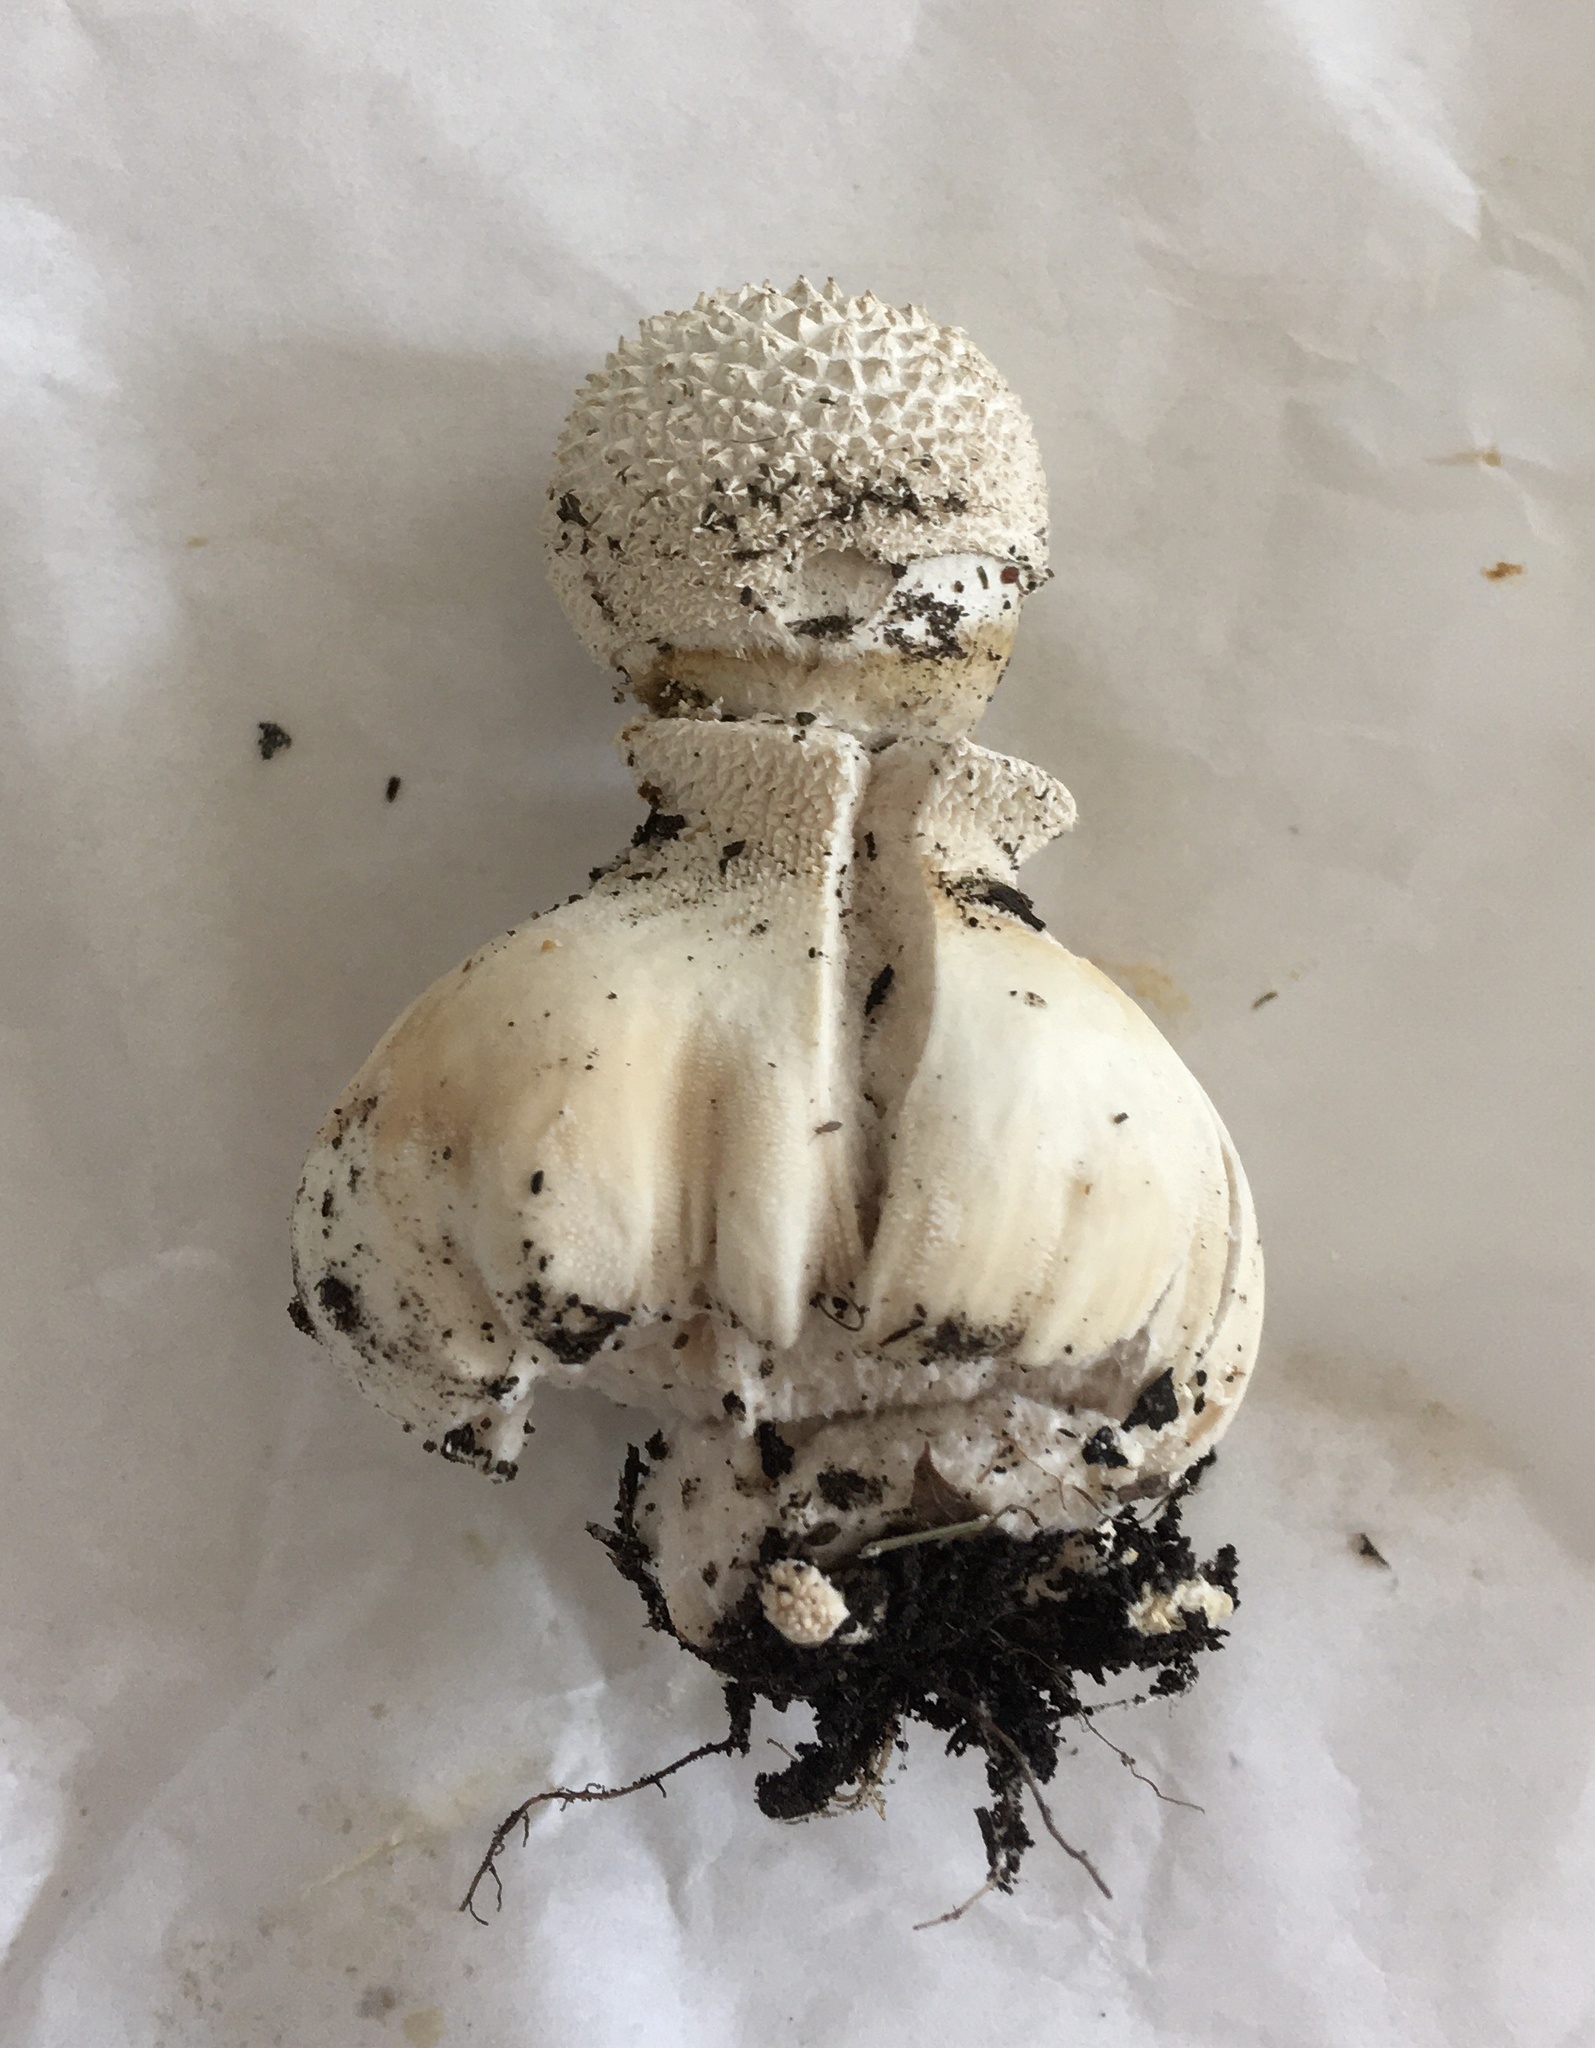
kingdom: Fungi
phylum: Basidiomycota
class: Agaricomycetes
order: Agaricales
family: Agaricaceae
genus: Lycoperdon
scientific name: Lycoperdon marginatum
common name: Peeling puffball
